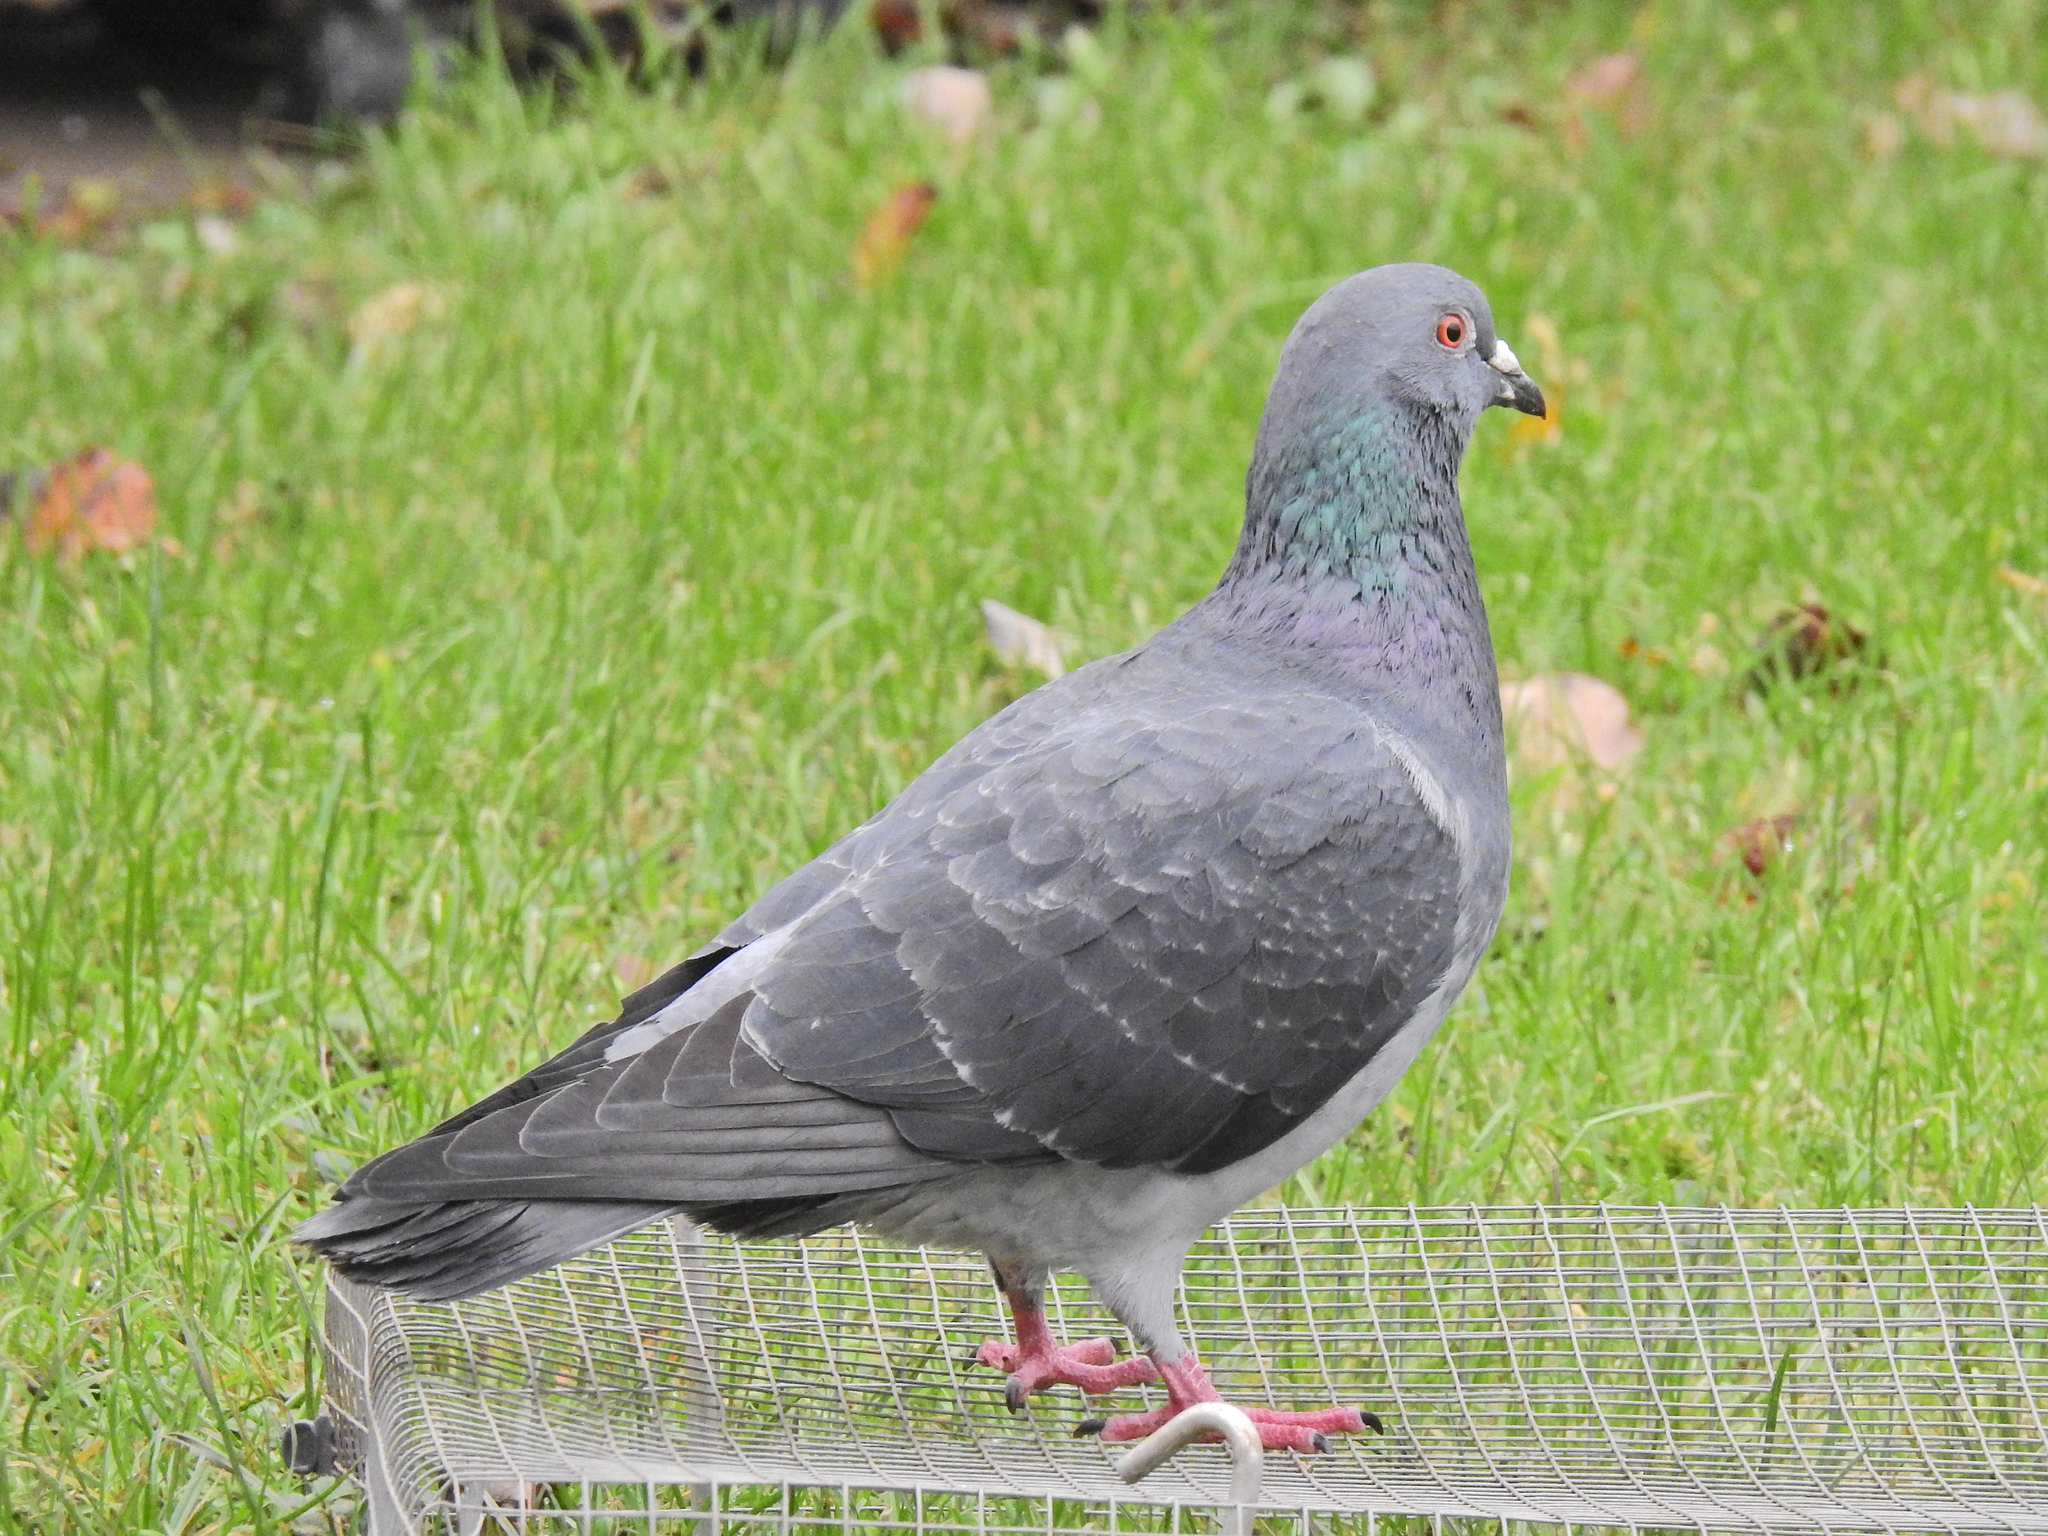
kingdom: Animalia
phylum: Chordata
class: Aves
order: Columbiformes
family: Columbidae
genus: Columba
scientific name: Columba livia
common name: Rock pigeon
